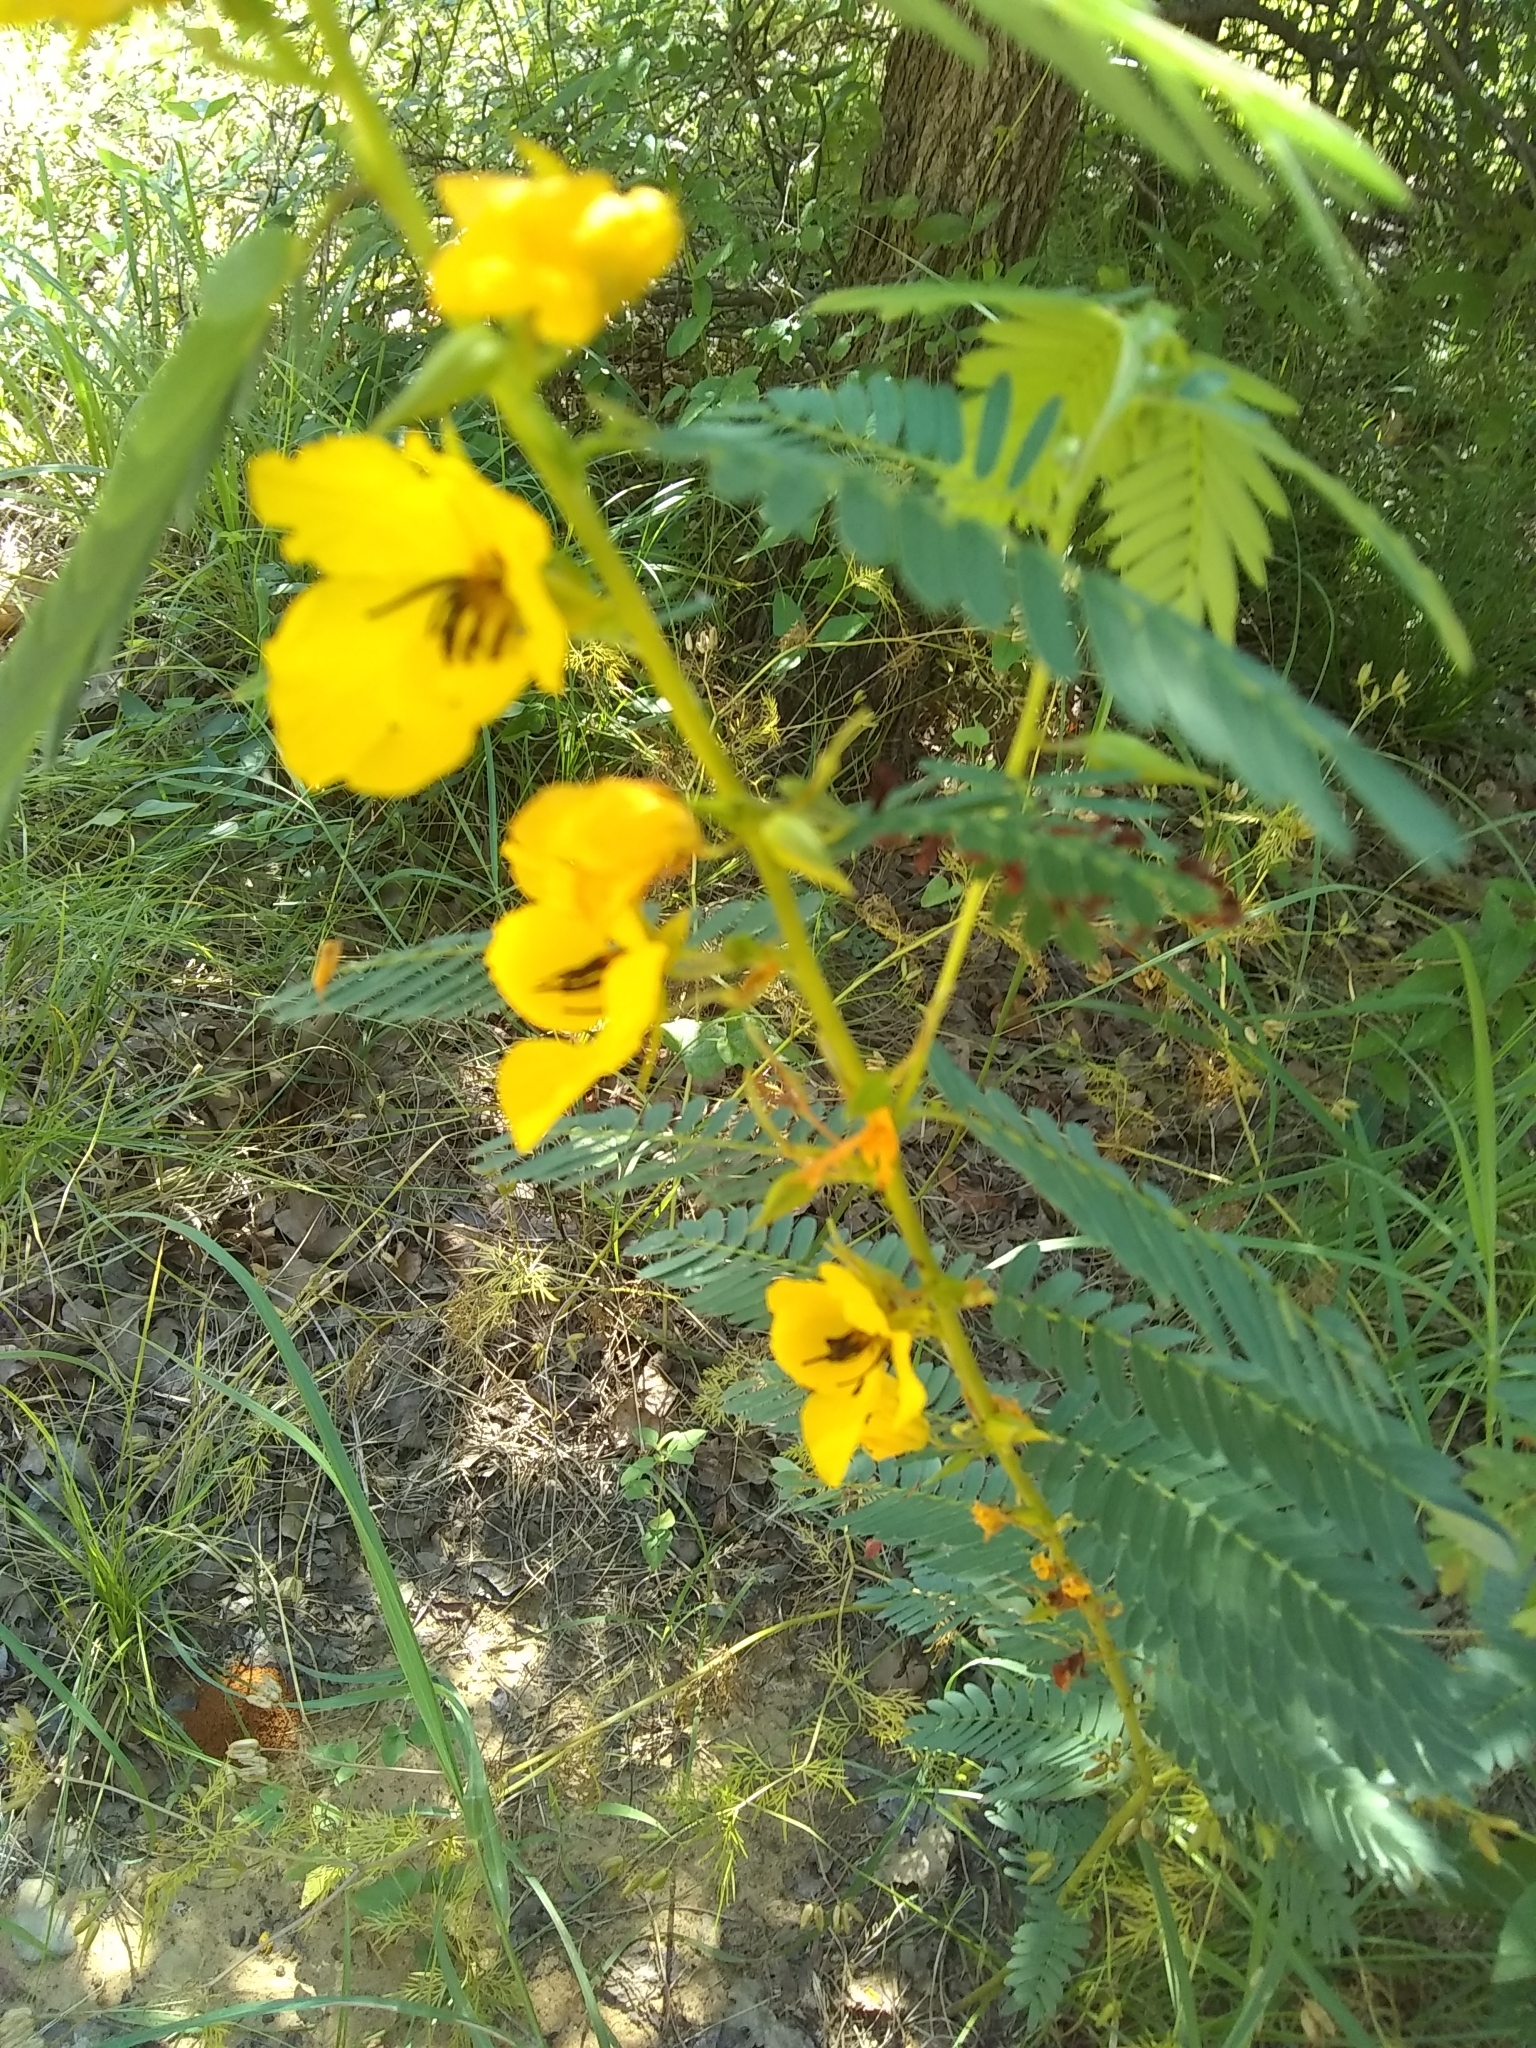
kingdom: Plantae
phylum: Tracheophyta
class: Magnoliopsida
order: Fabales
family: Fabaceae
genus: Chamaecrista
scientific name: Chamaecrista fasciculata
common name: Golden cassia
